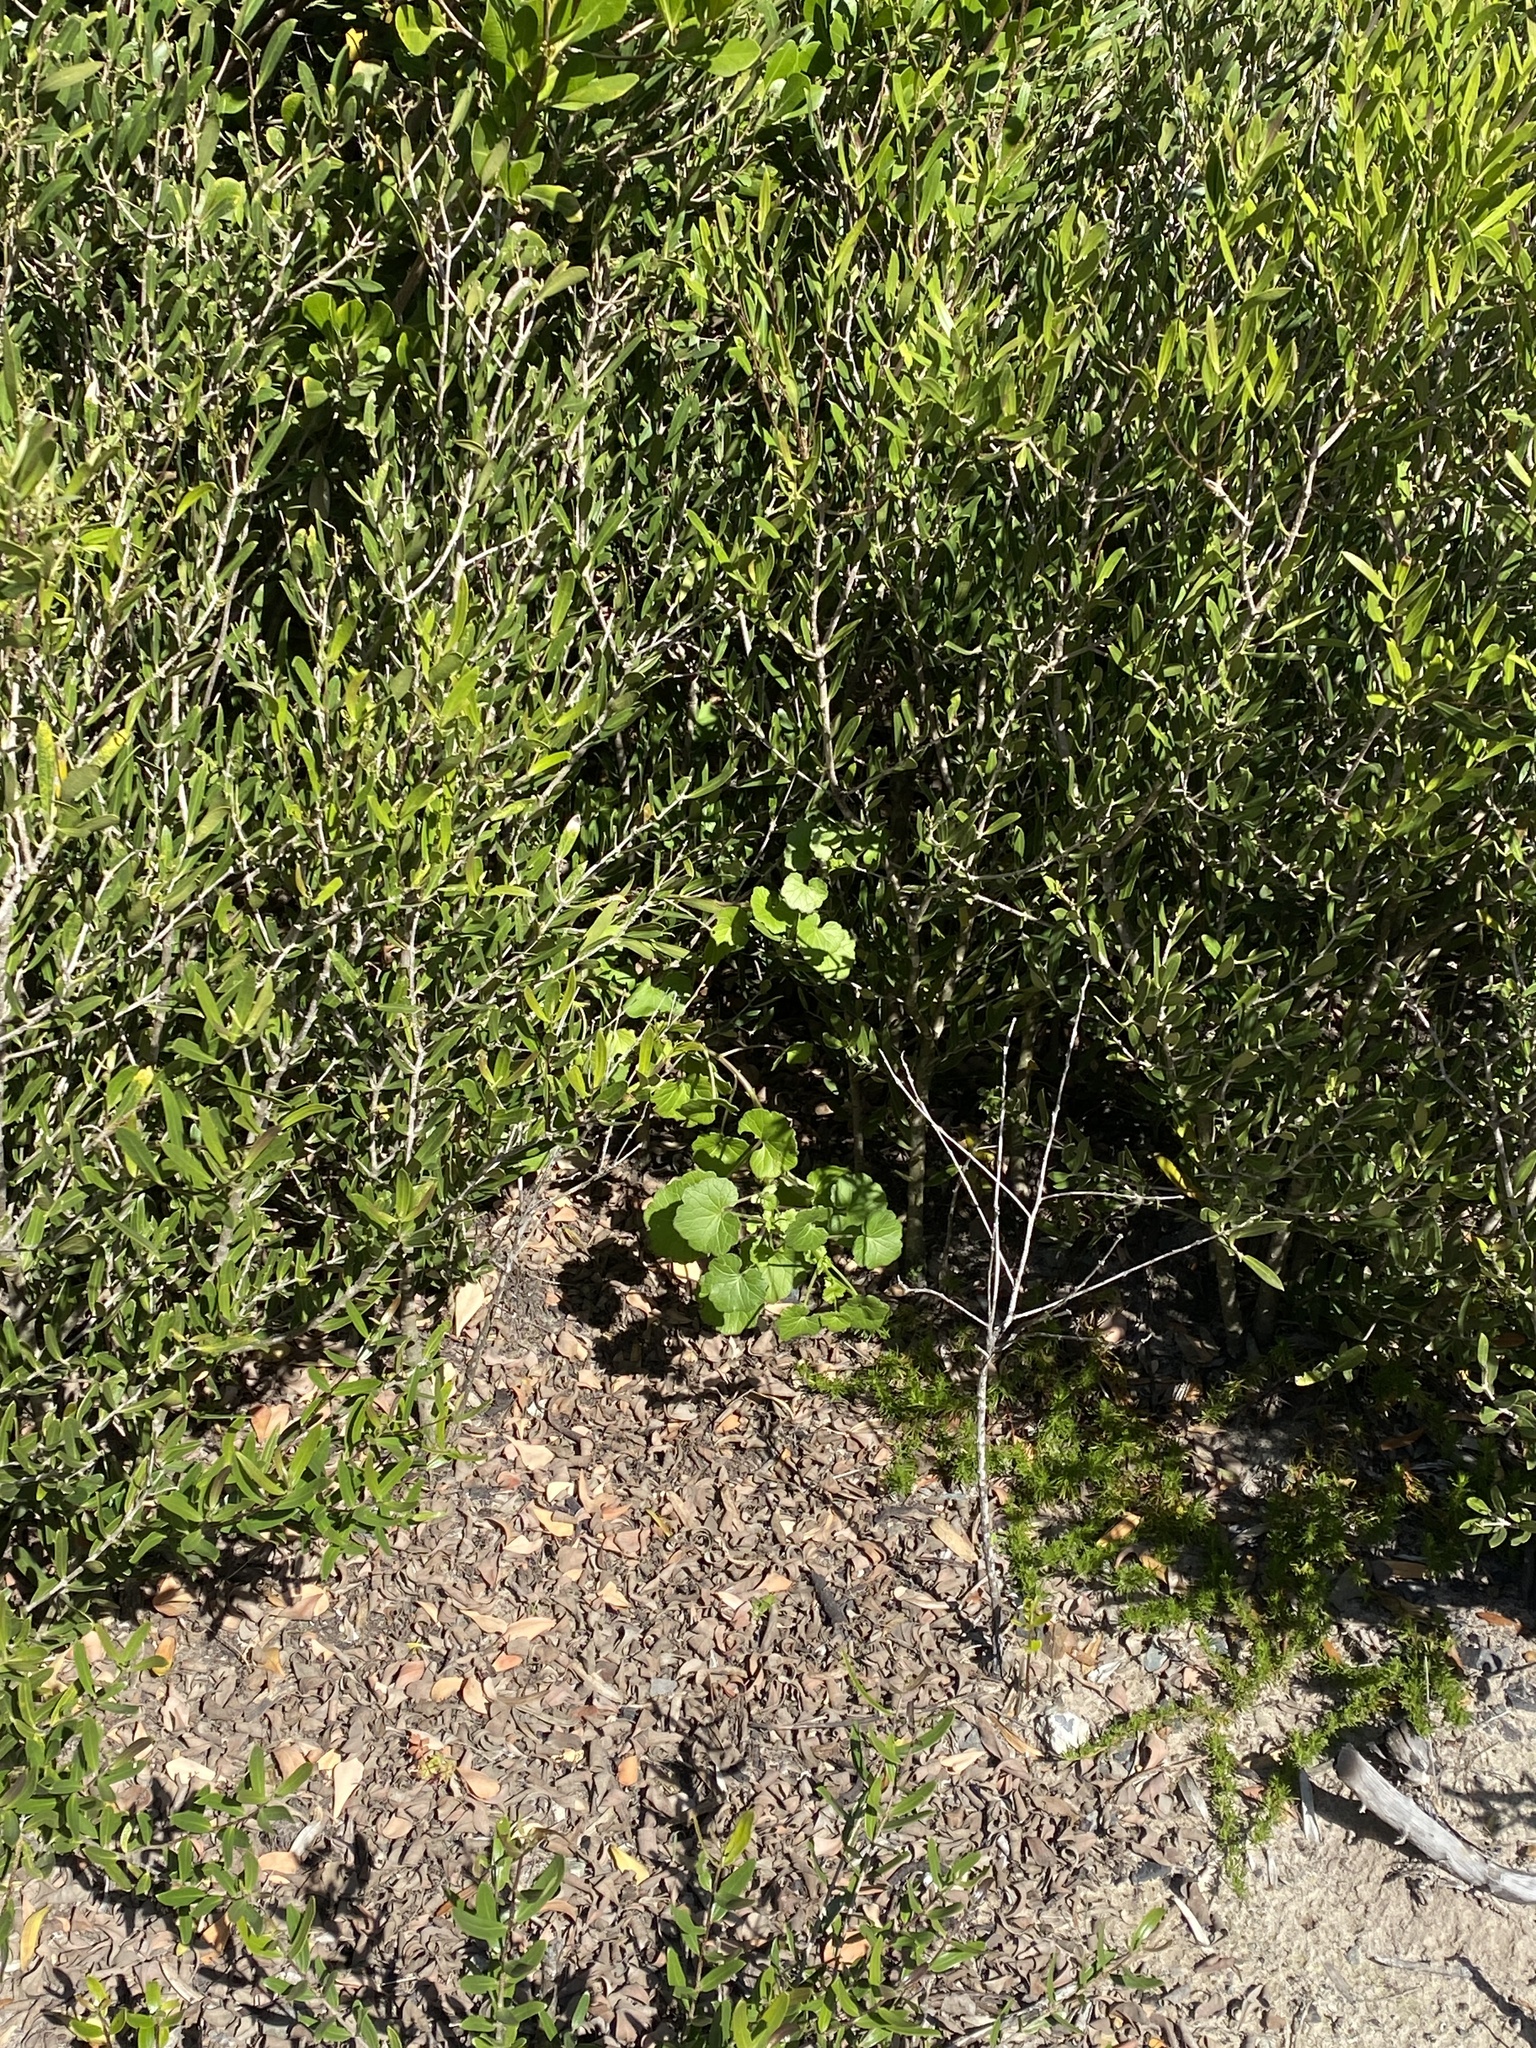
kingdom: Plantae
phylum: Tracheophyta
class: Magnoliopsida
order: Asterales
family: Asteraceae
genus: Cineraria
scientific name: Cineraria geifolia
